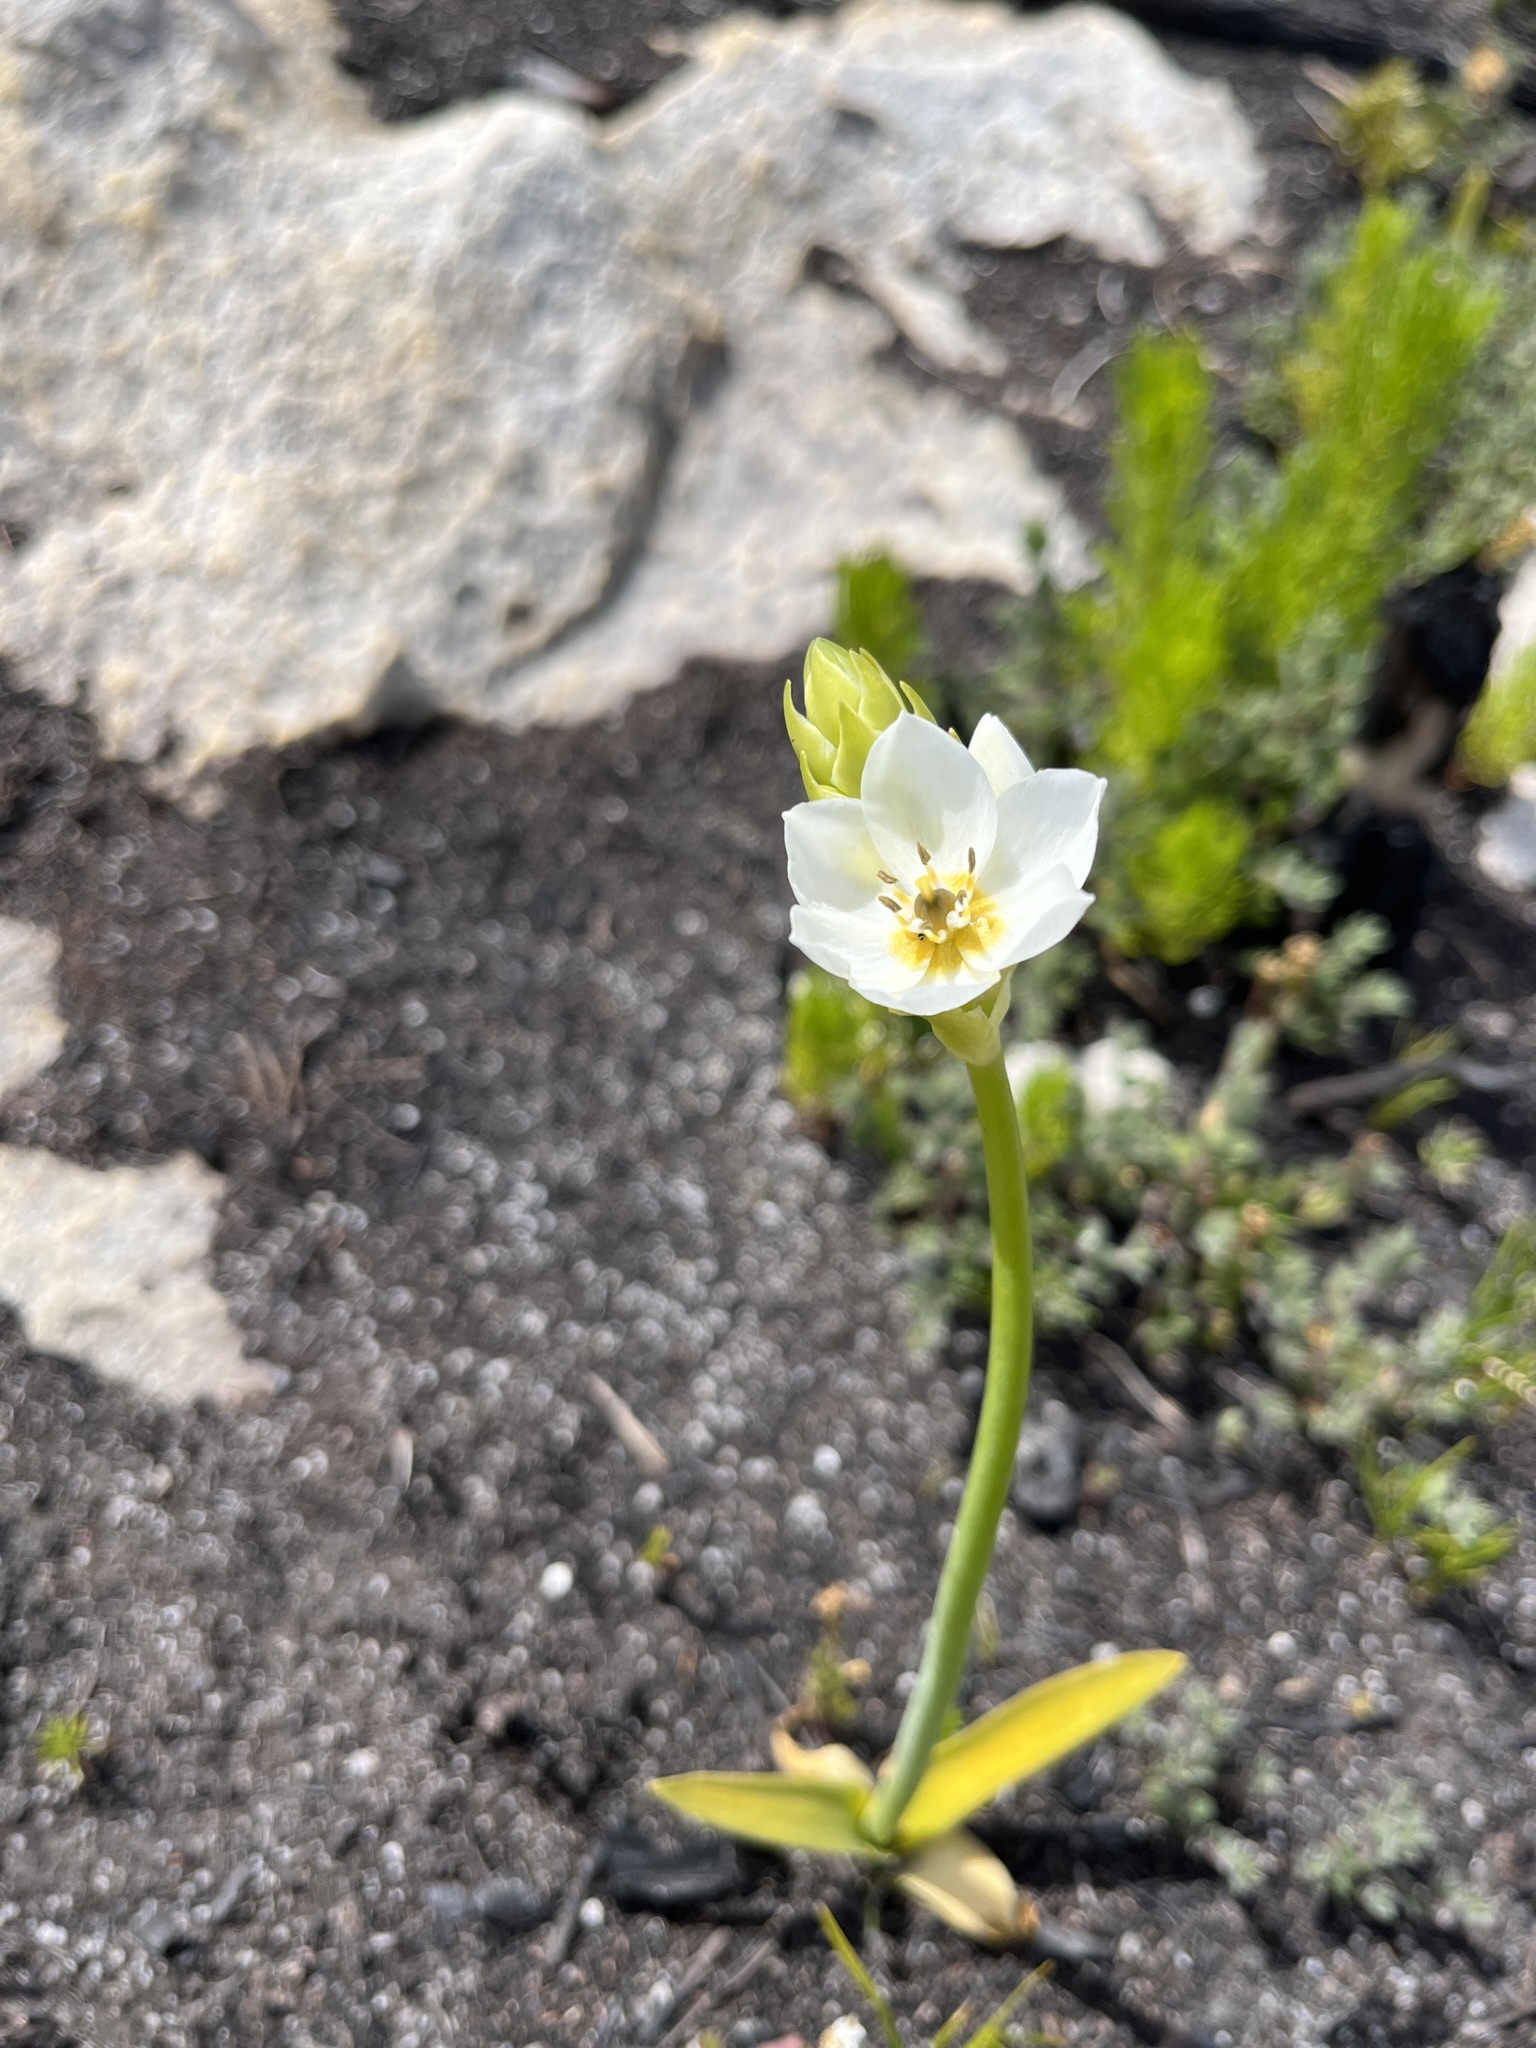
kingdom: Plantae
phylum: Tracheophyta
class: Liliopsida
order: Asparagales
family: Asparagaceae
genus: Ornithogalum
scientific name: Ornithogalum thyrsoides
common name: Chincherinchee
